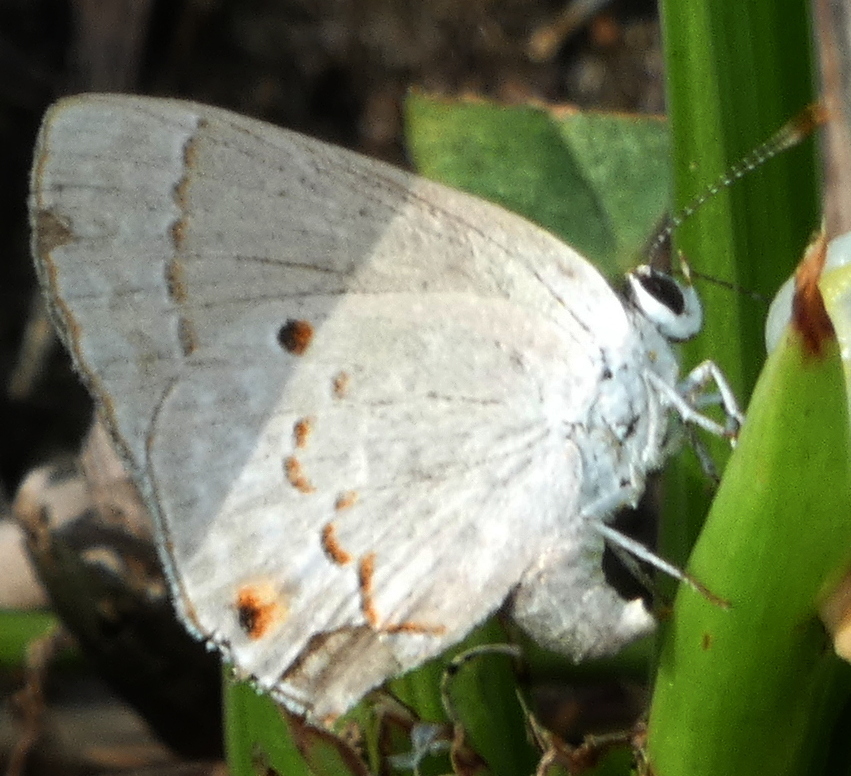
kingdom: Animalia
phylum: Arthropoda
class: Insecta
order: Lepidoptera
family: Lycaenidae
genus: Thecla
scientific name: Thecla rufofusca
